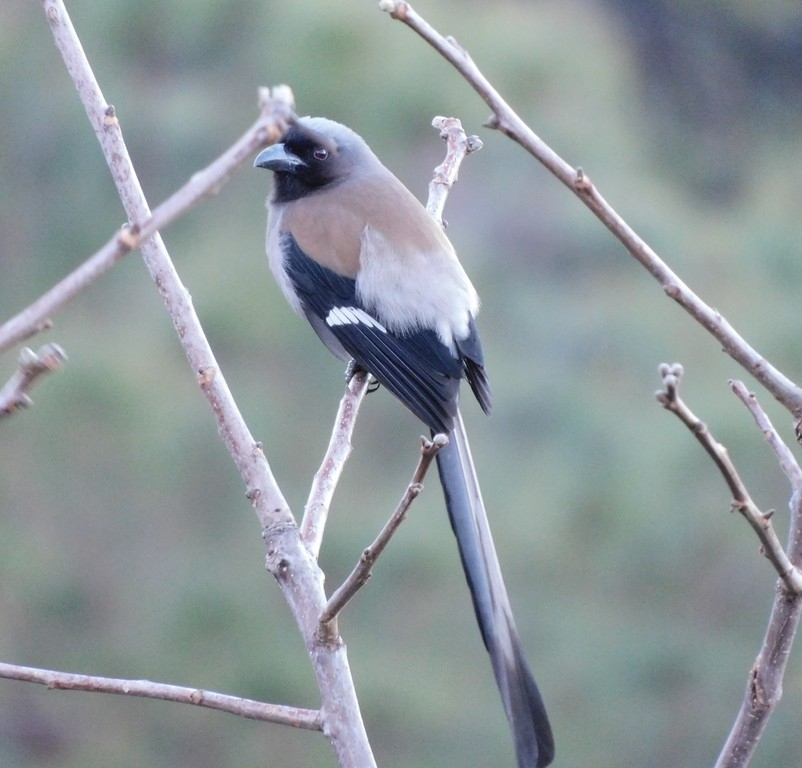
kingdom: Animalia
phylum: Chordata
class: Aves
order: Passeriformes
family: Corvidae
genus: Dendrocitta
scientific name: Dendrocitta formosae
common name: Grey treepie
